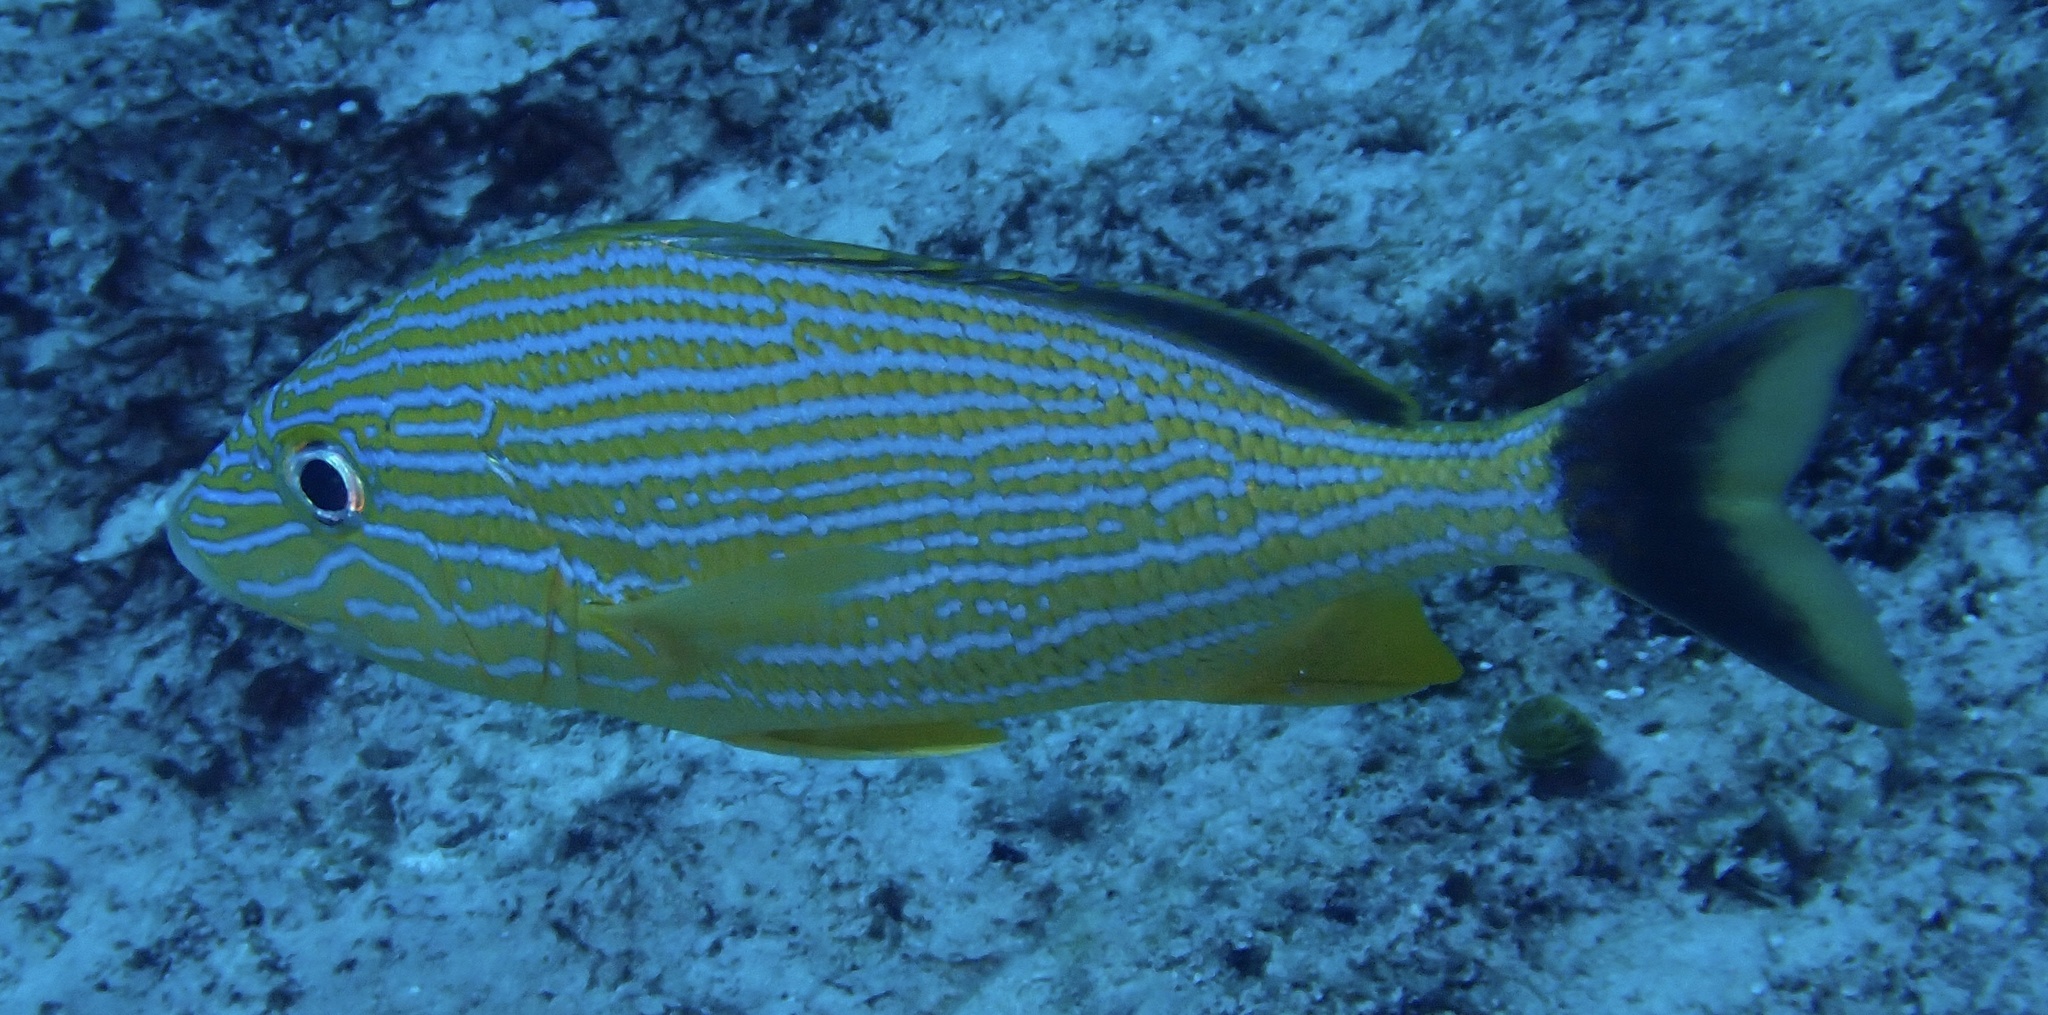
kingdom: Animalia
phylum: Chordata
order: Perciformes
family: Haemulidae
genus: Haemulon
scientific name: Haemulon sciurus
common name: Bluestriped grunt
